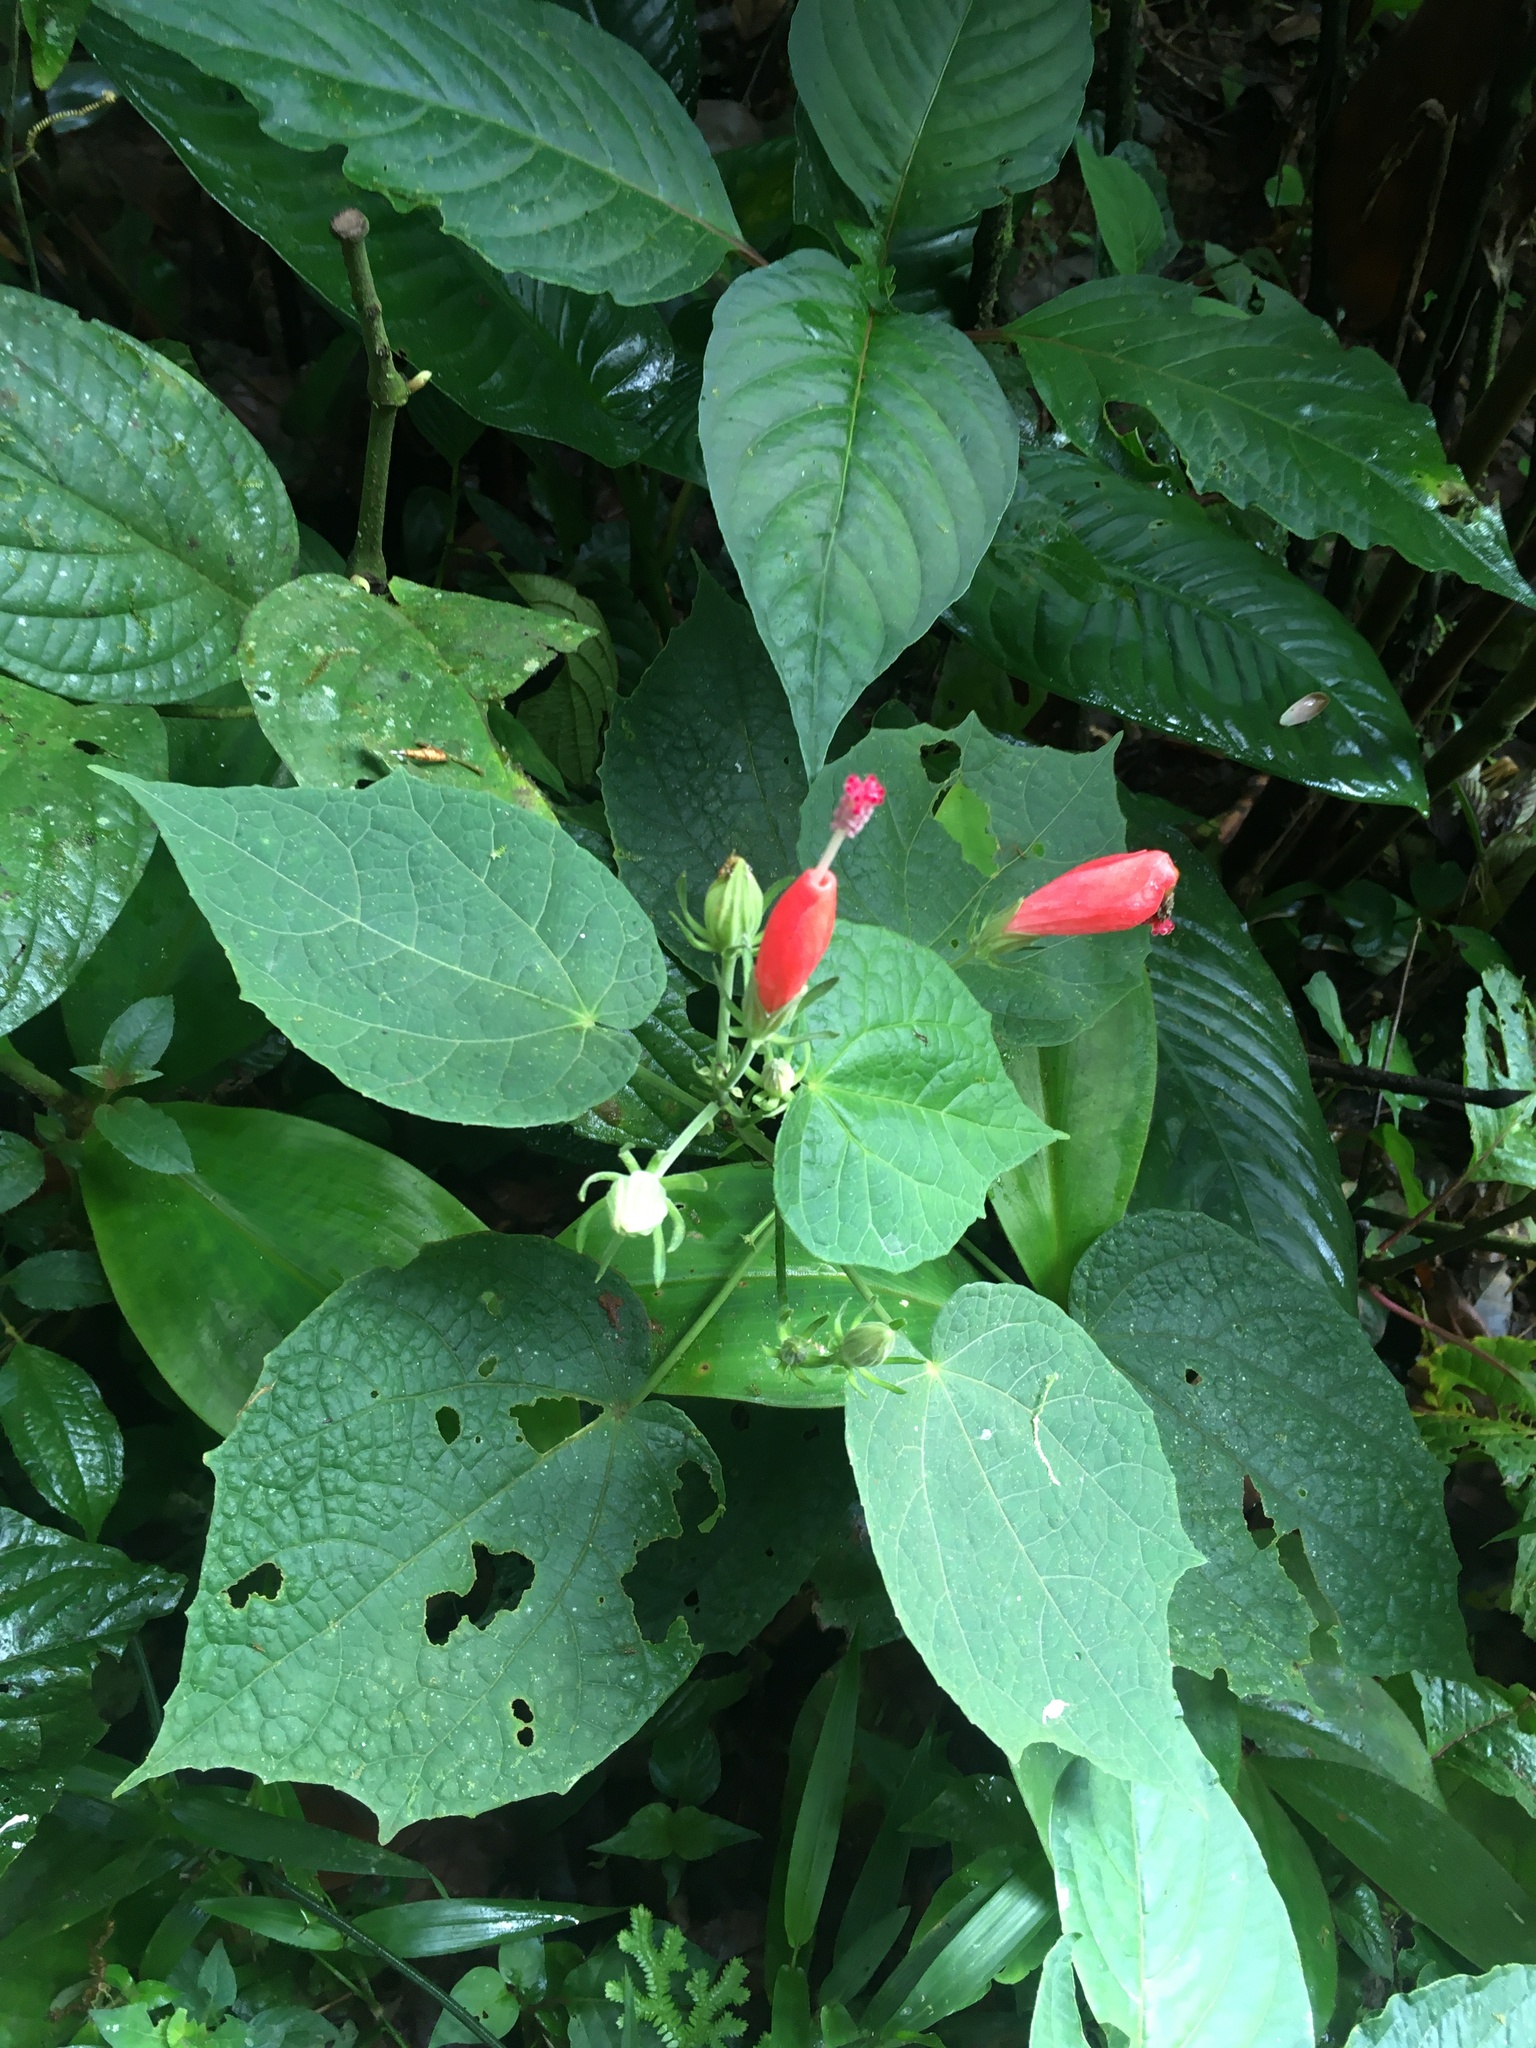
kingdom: Plantae
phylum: Tracheophyta
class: Magnoliopsida
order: Malvales
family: Malvaceae
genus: Malvaviscus
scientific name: Malvaviscus arboreus
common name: Wax mallow
